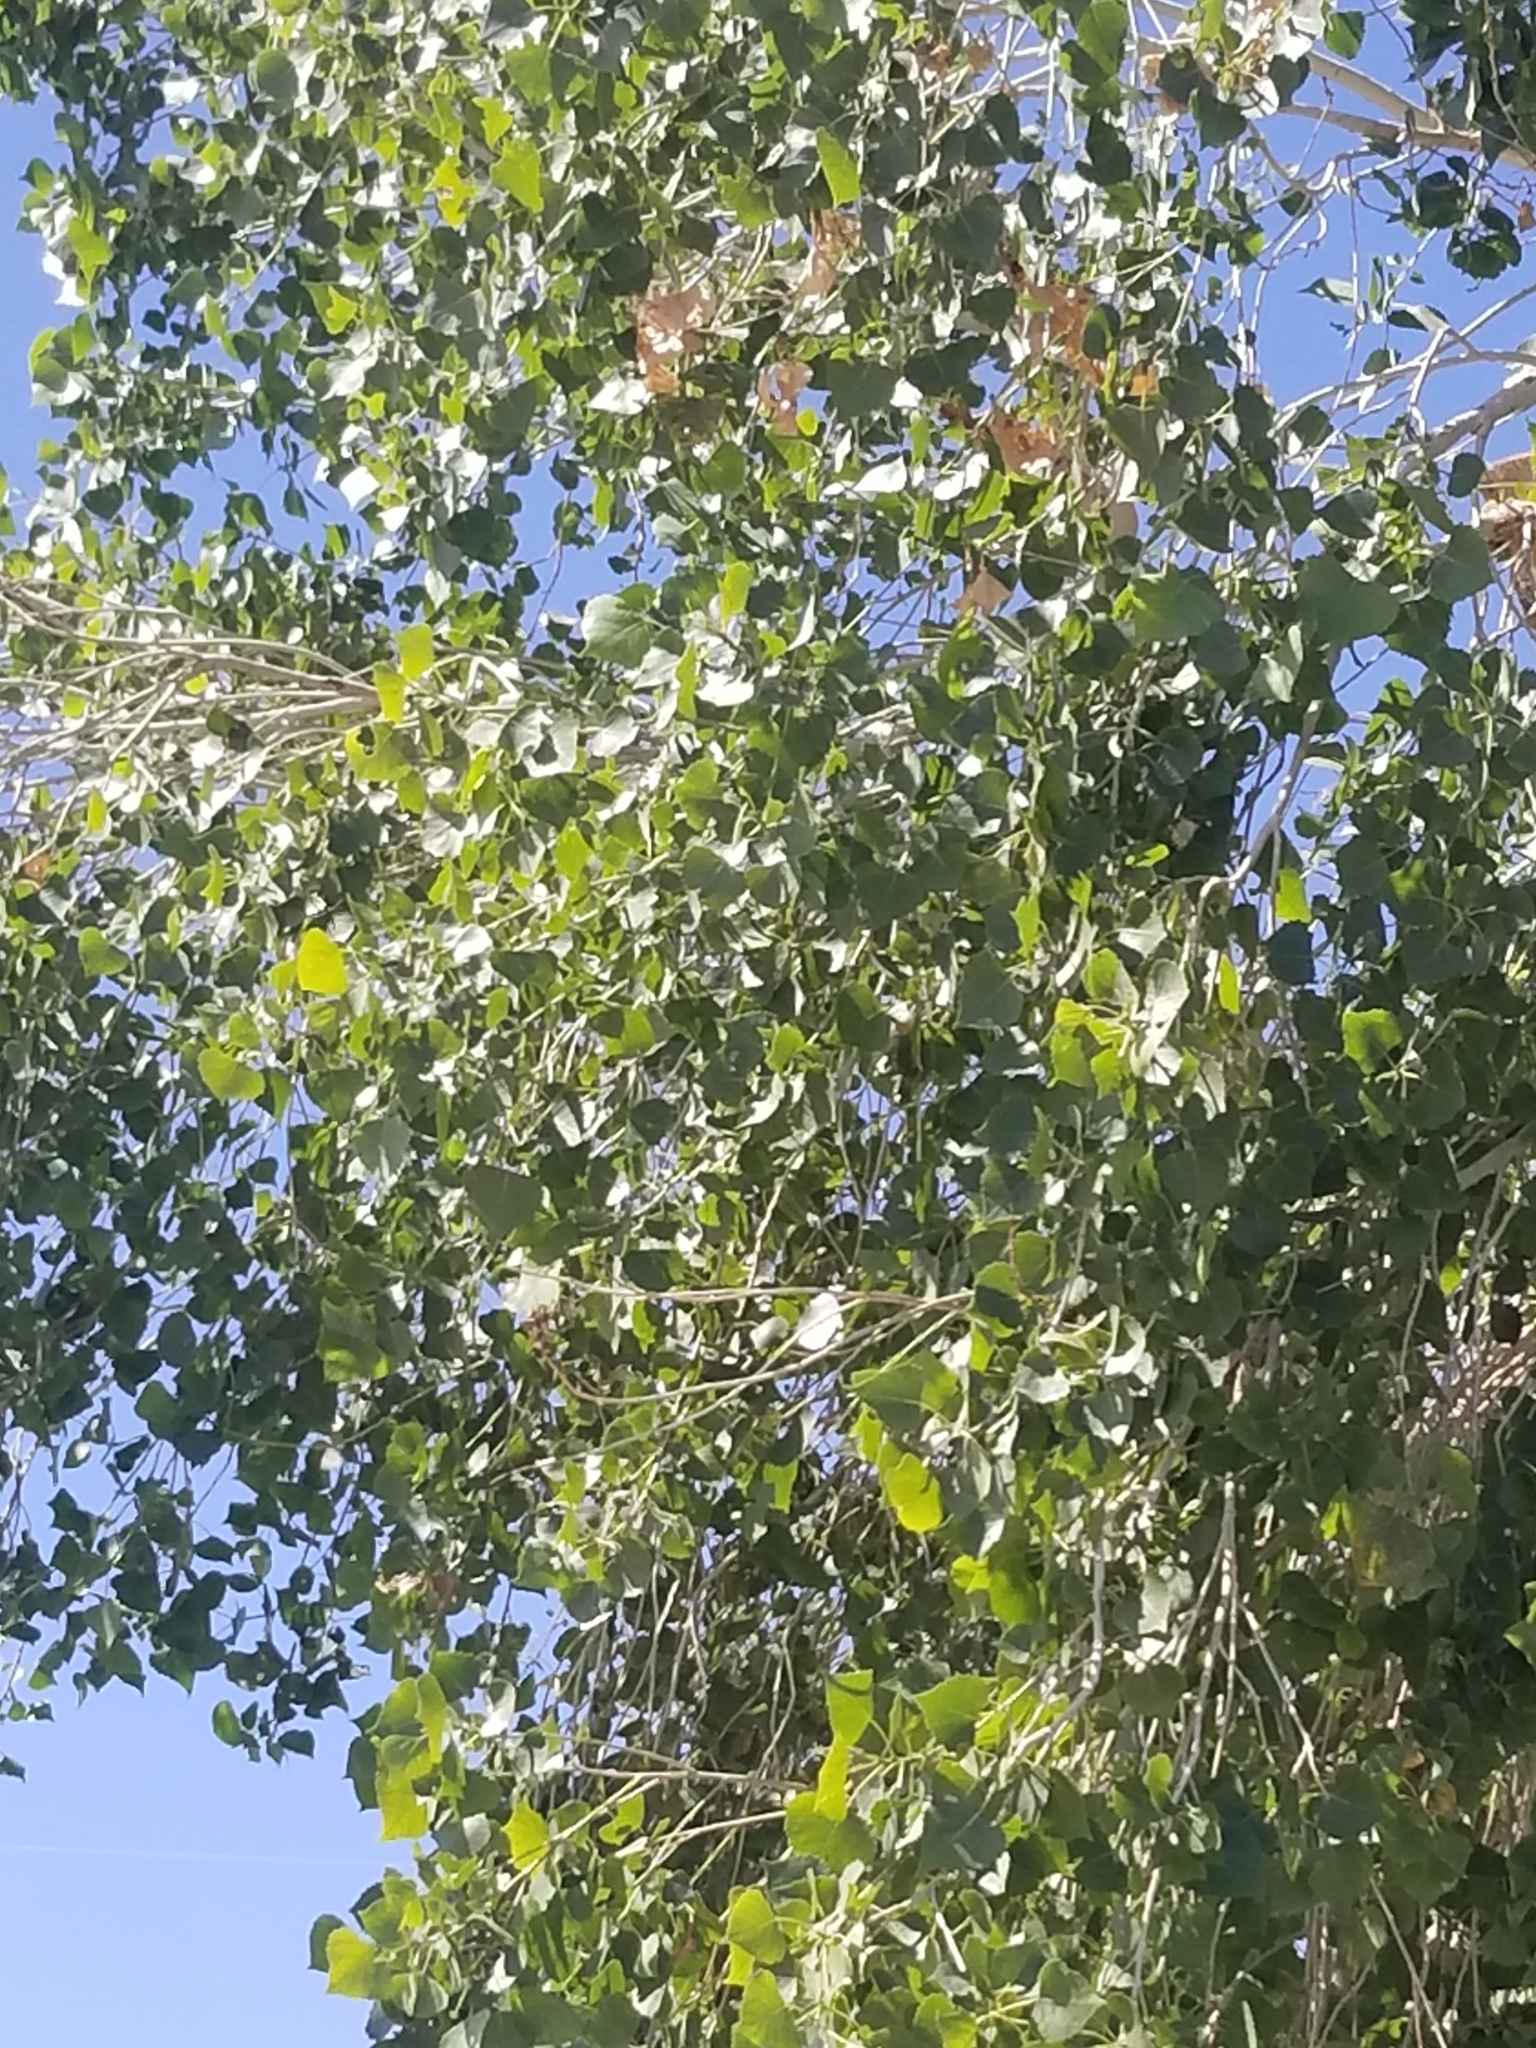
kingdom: Plantae
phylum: Tracheophyta
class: Magnoliopsida
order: Malpighiales
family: Salicaceae
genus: Populus
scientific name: Populus fremontii
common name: Fremont's cottonwood
